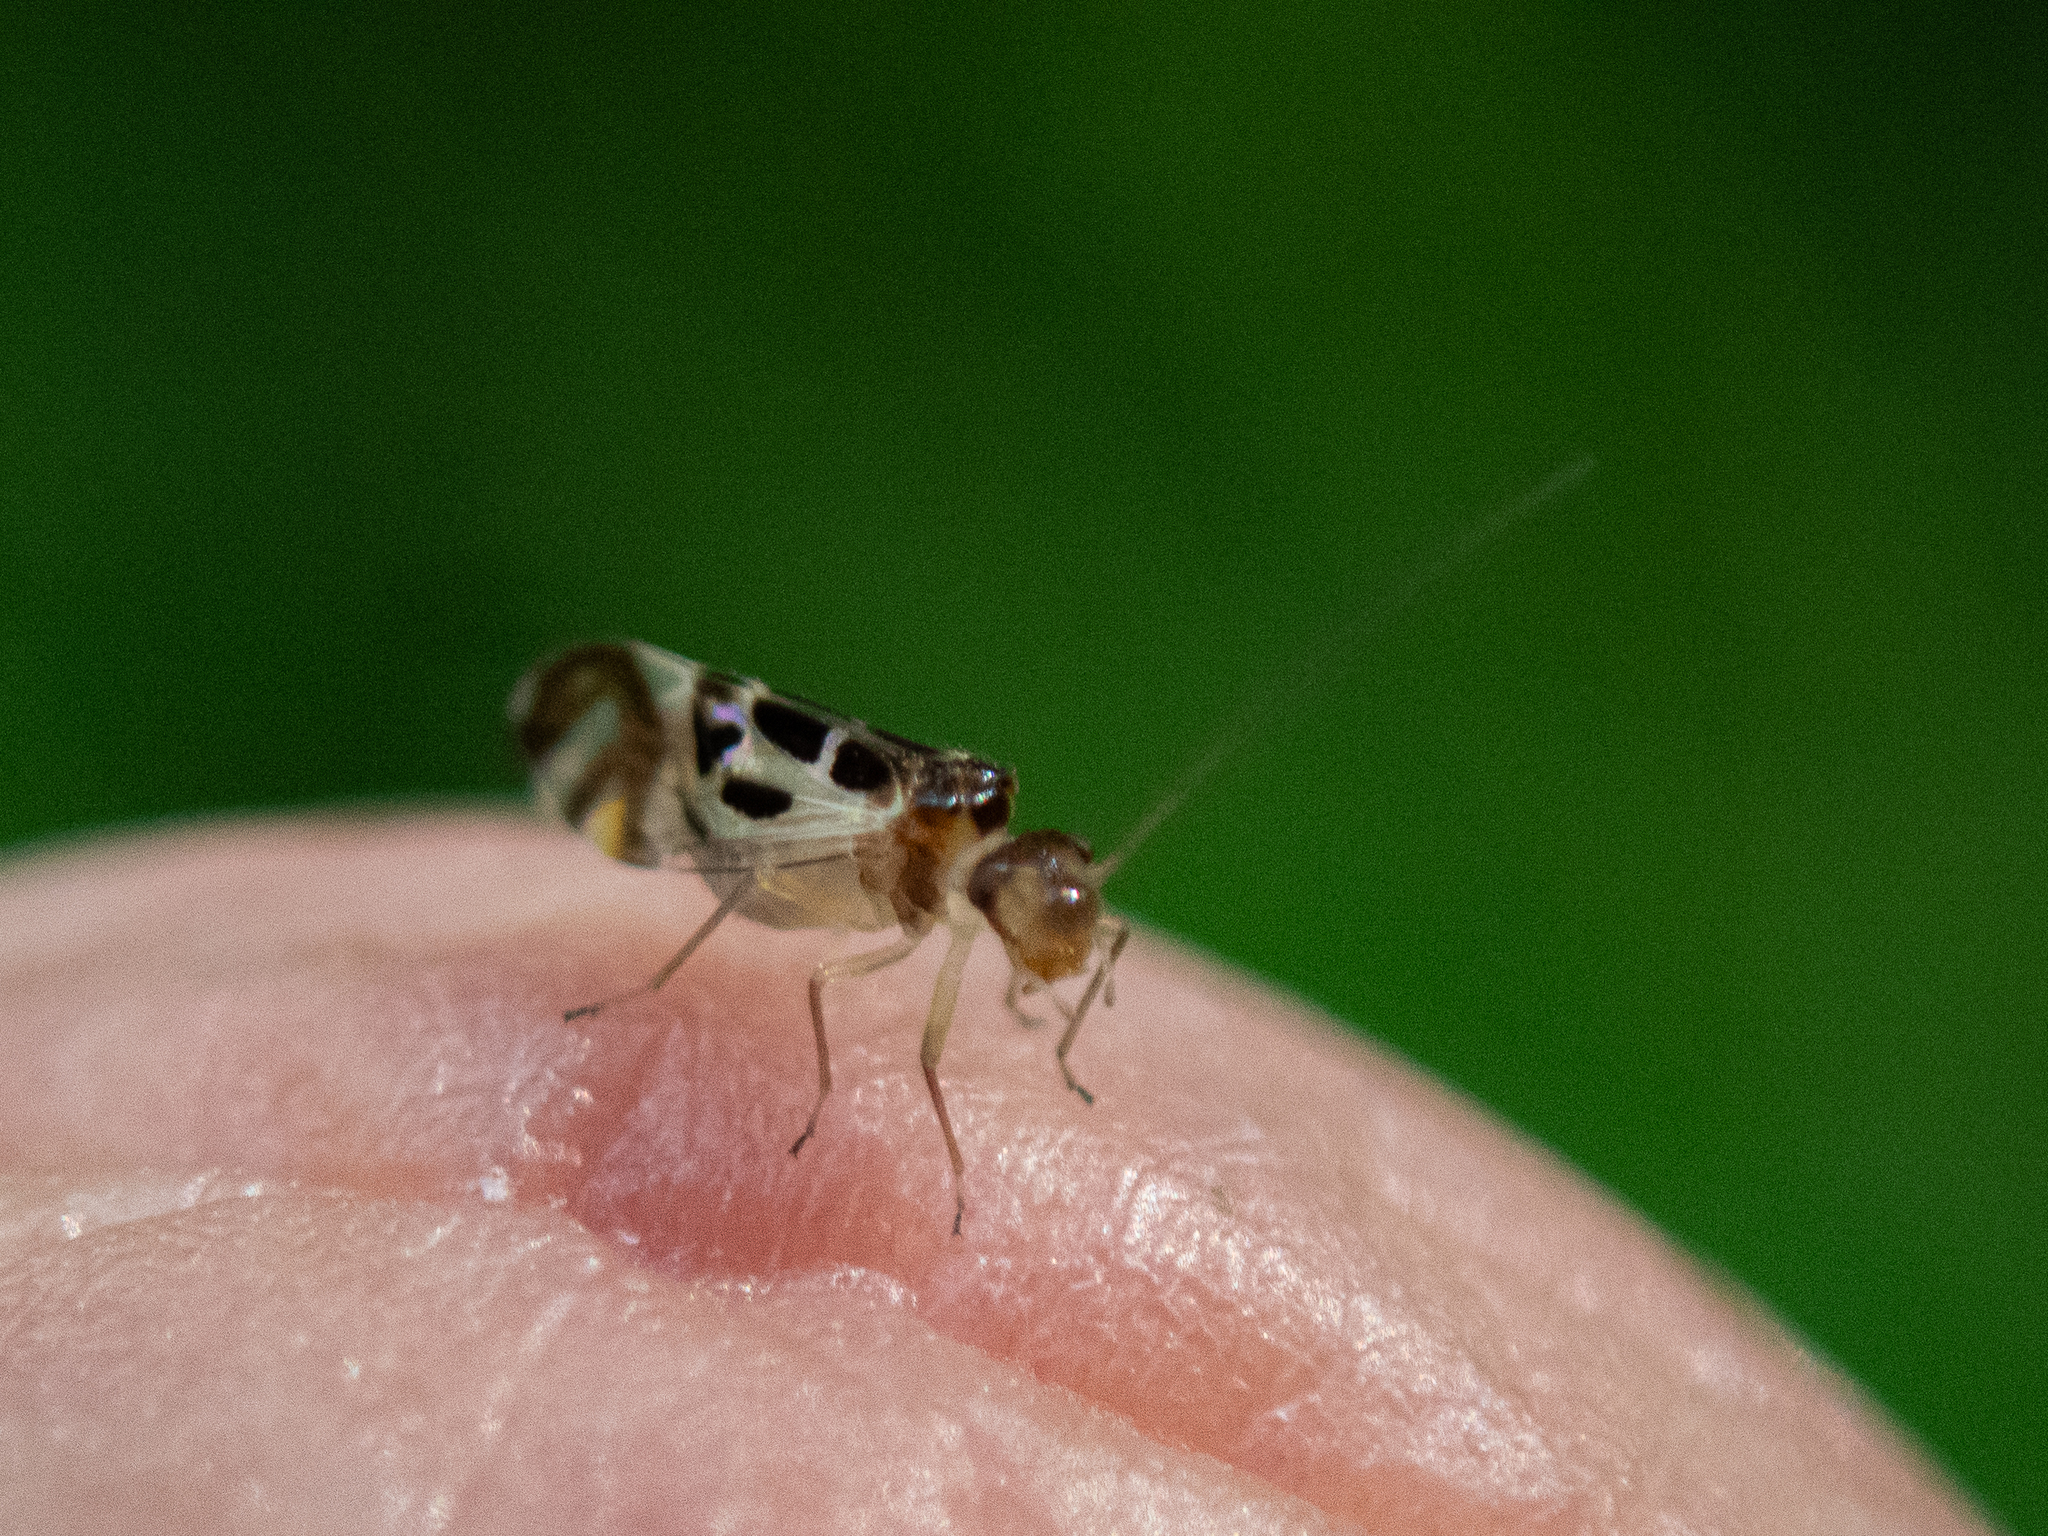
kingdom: Animalia
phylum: Arthropoda
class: Insecta
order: Psocodea
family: Stenopsocidae
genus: Graphopsocus
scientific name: Graphopsocus cruciatus
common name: Lizard bark louse
